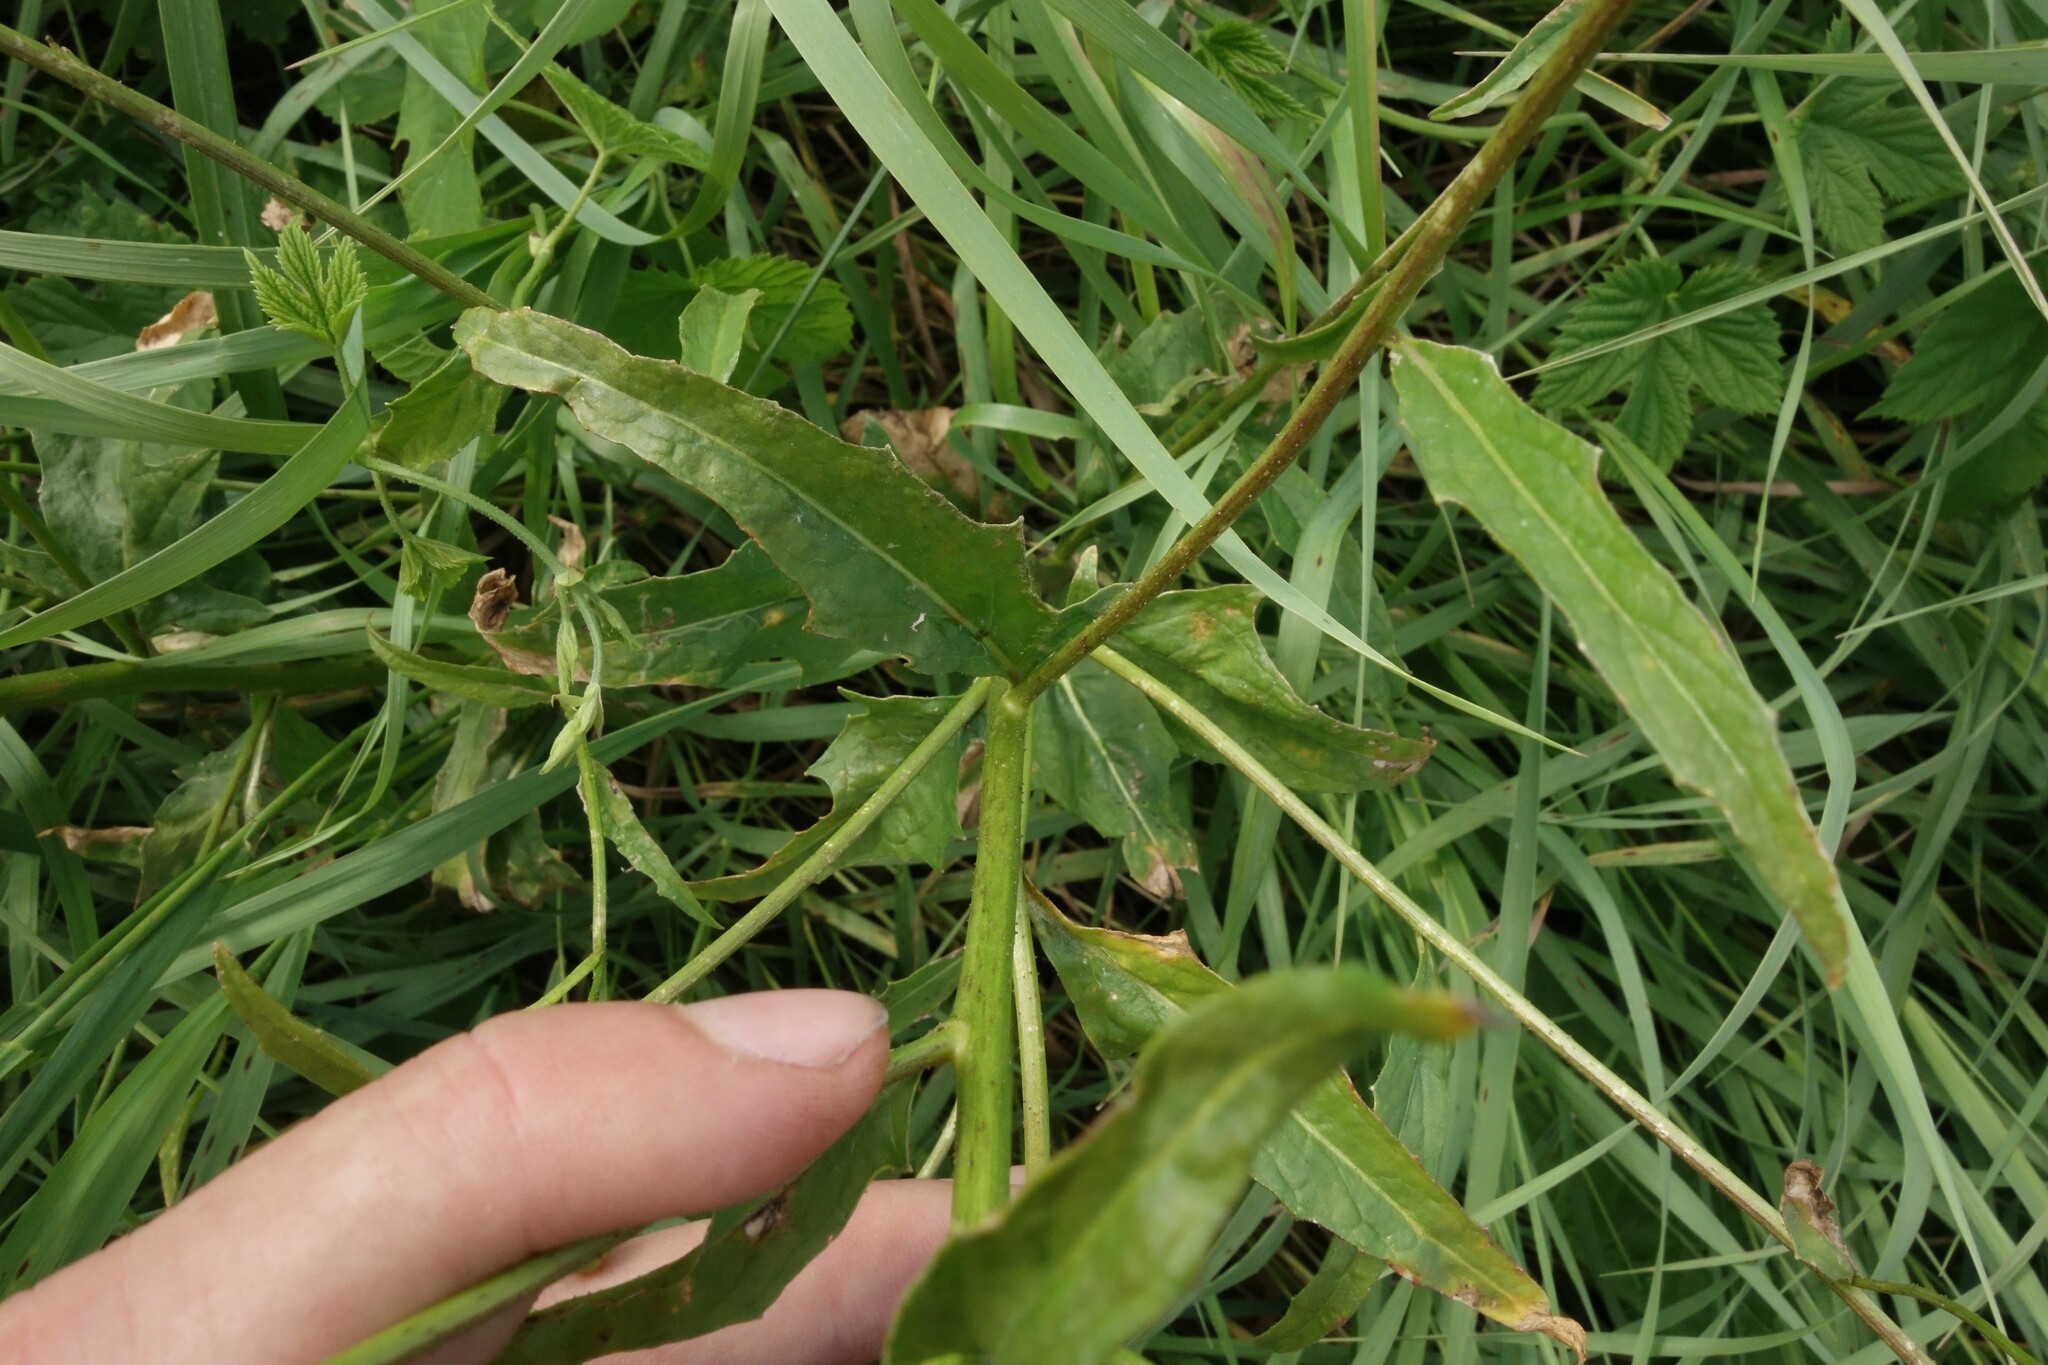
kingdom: Plantae
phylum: Tracheophyta
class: Magnoliopsida
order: Brassicales
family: Brassicaceae
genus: Bunias
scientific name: Bunias orientalis
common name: Warty-cabbage
